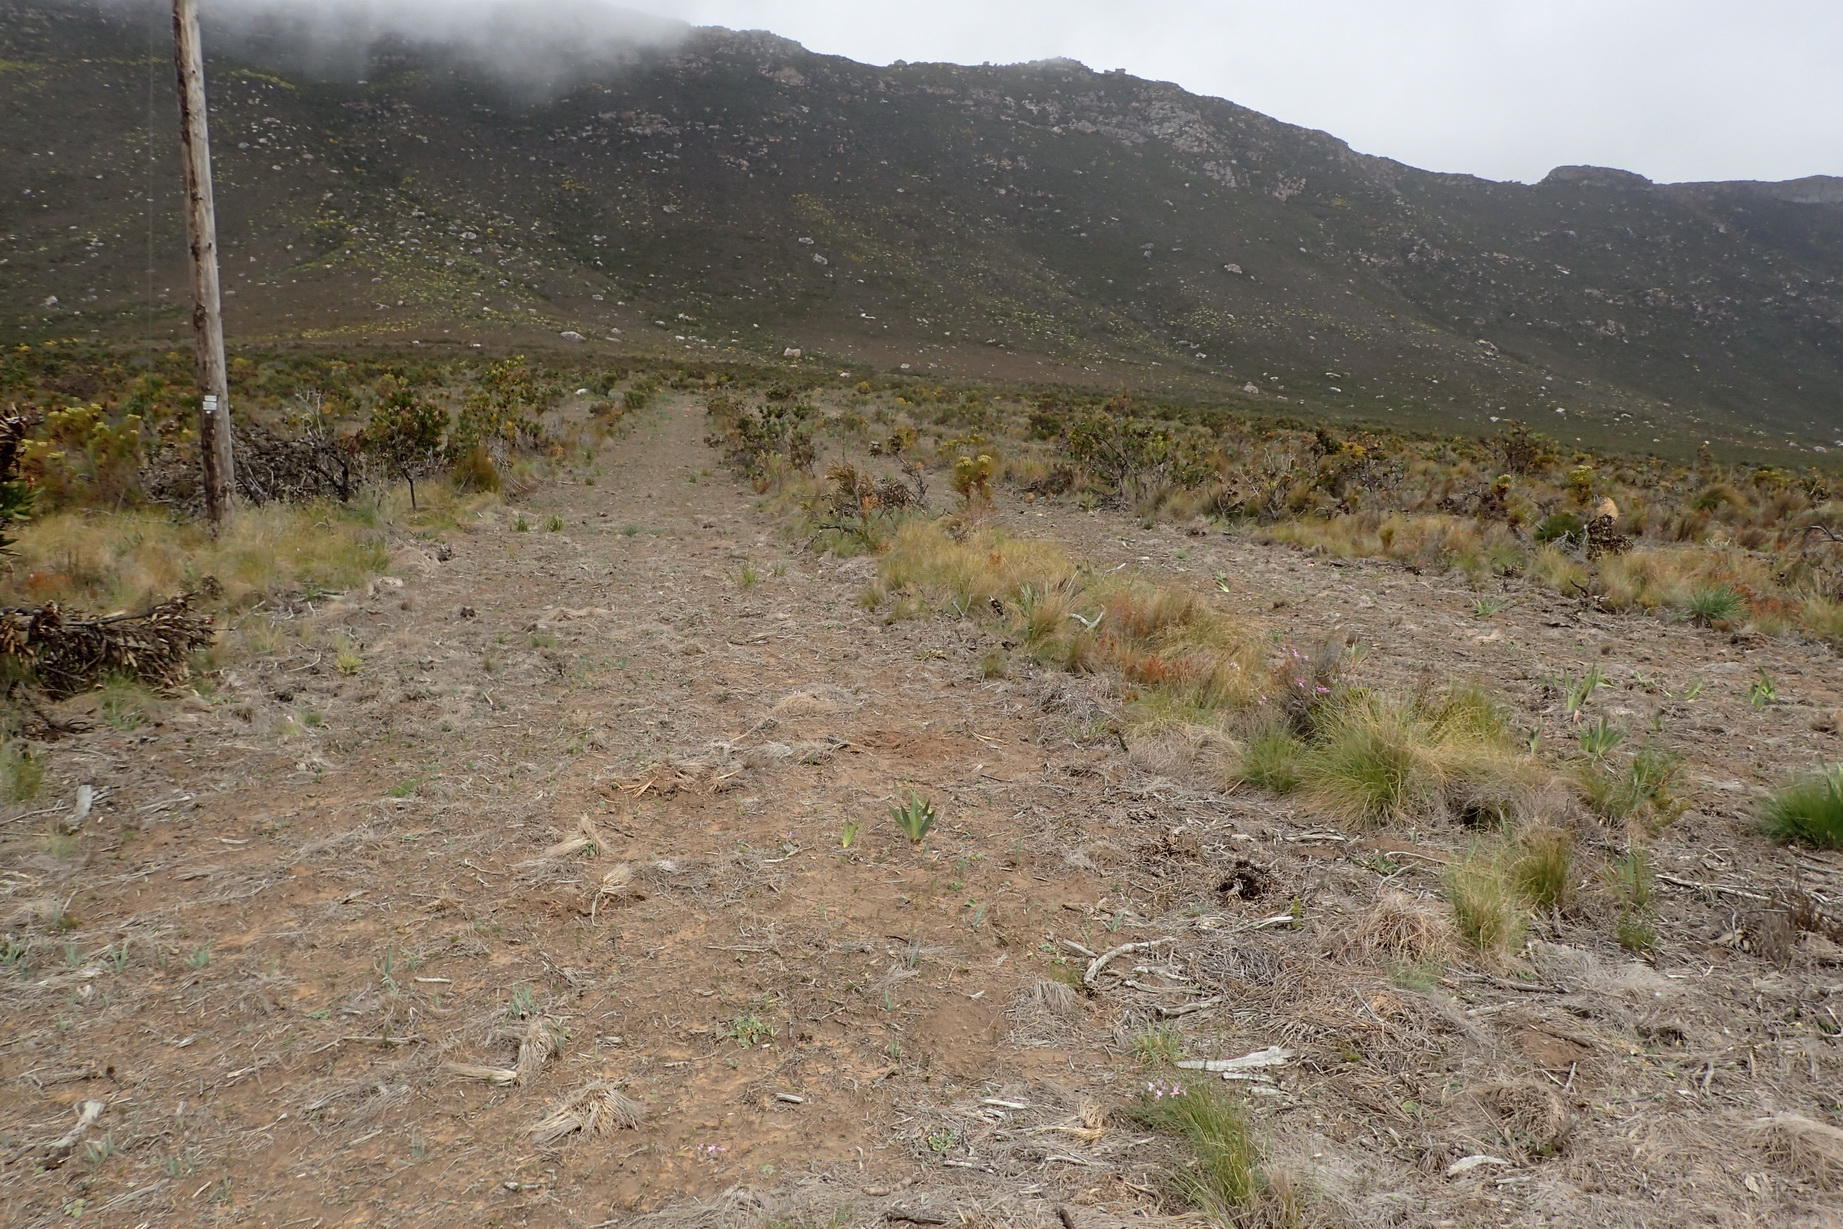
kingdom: Plantae
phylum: Tracheophyta
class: Magnoliopsida
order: Proteales
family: Proteaceae
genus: Protea
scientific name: Protea compacta
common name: Bot river protea
